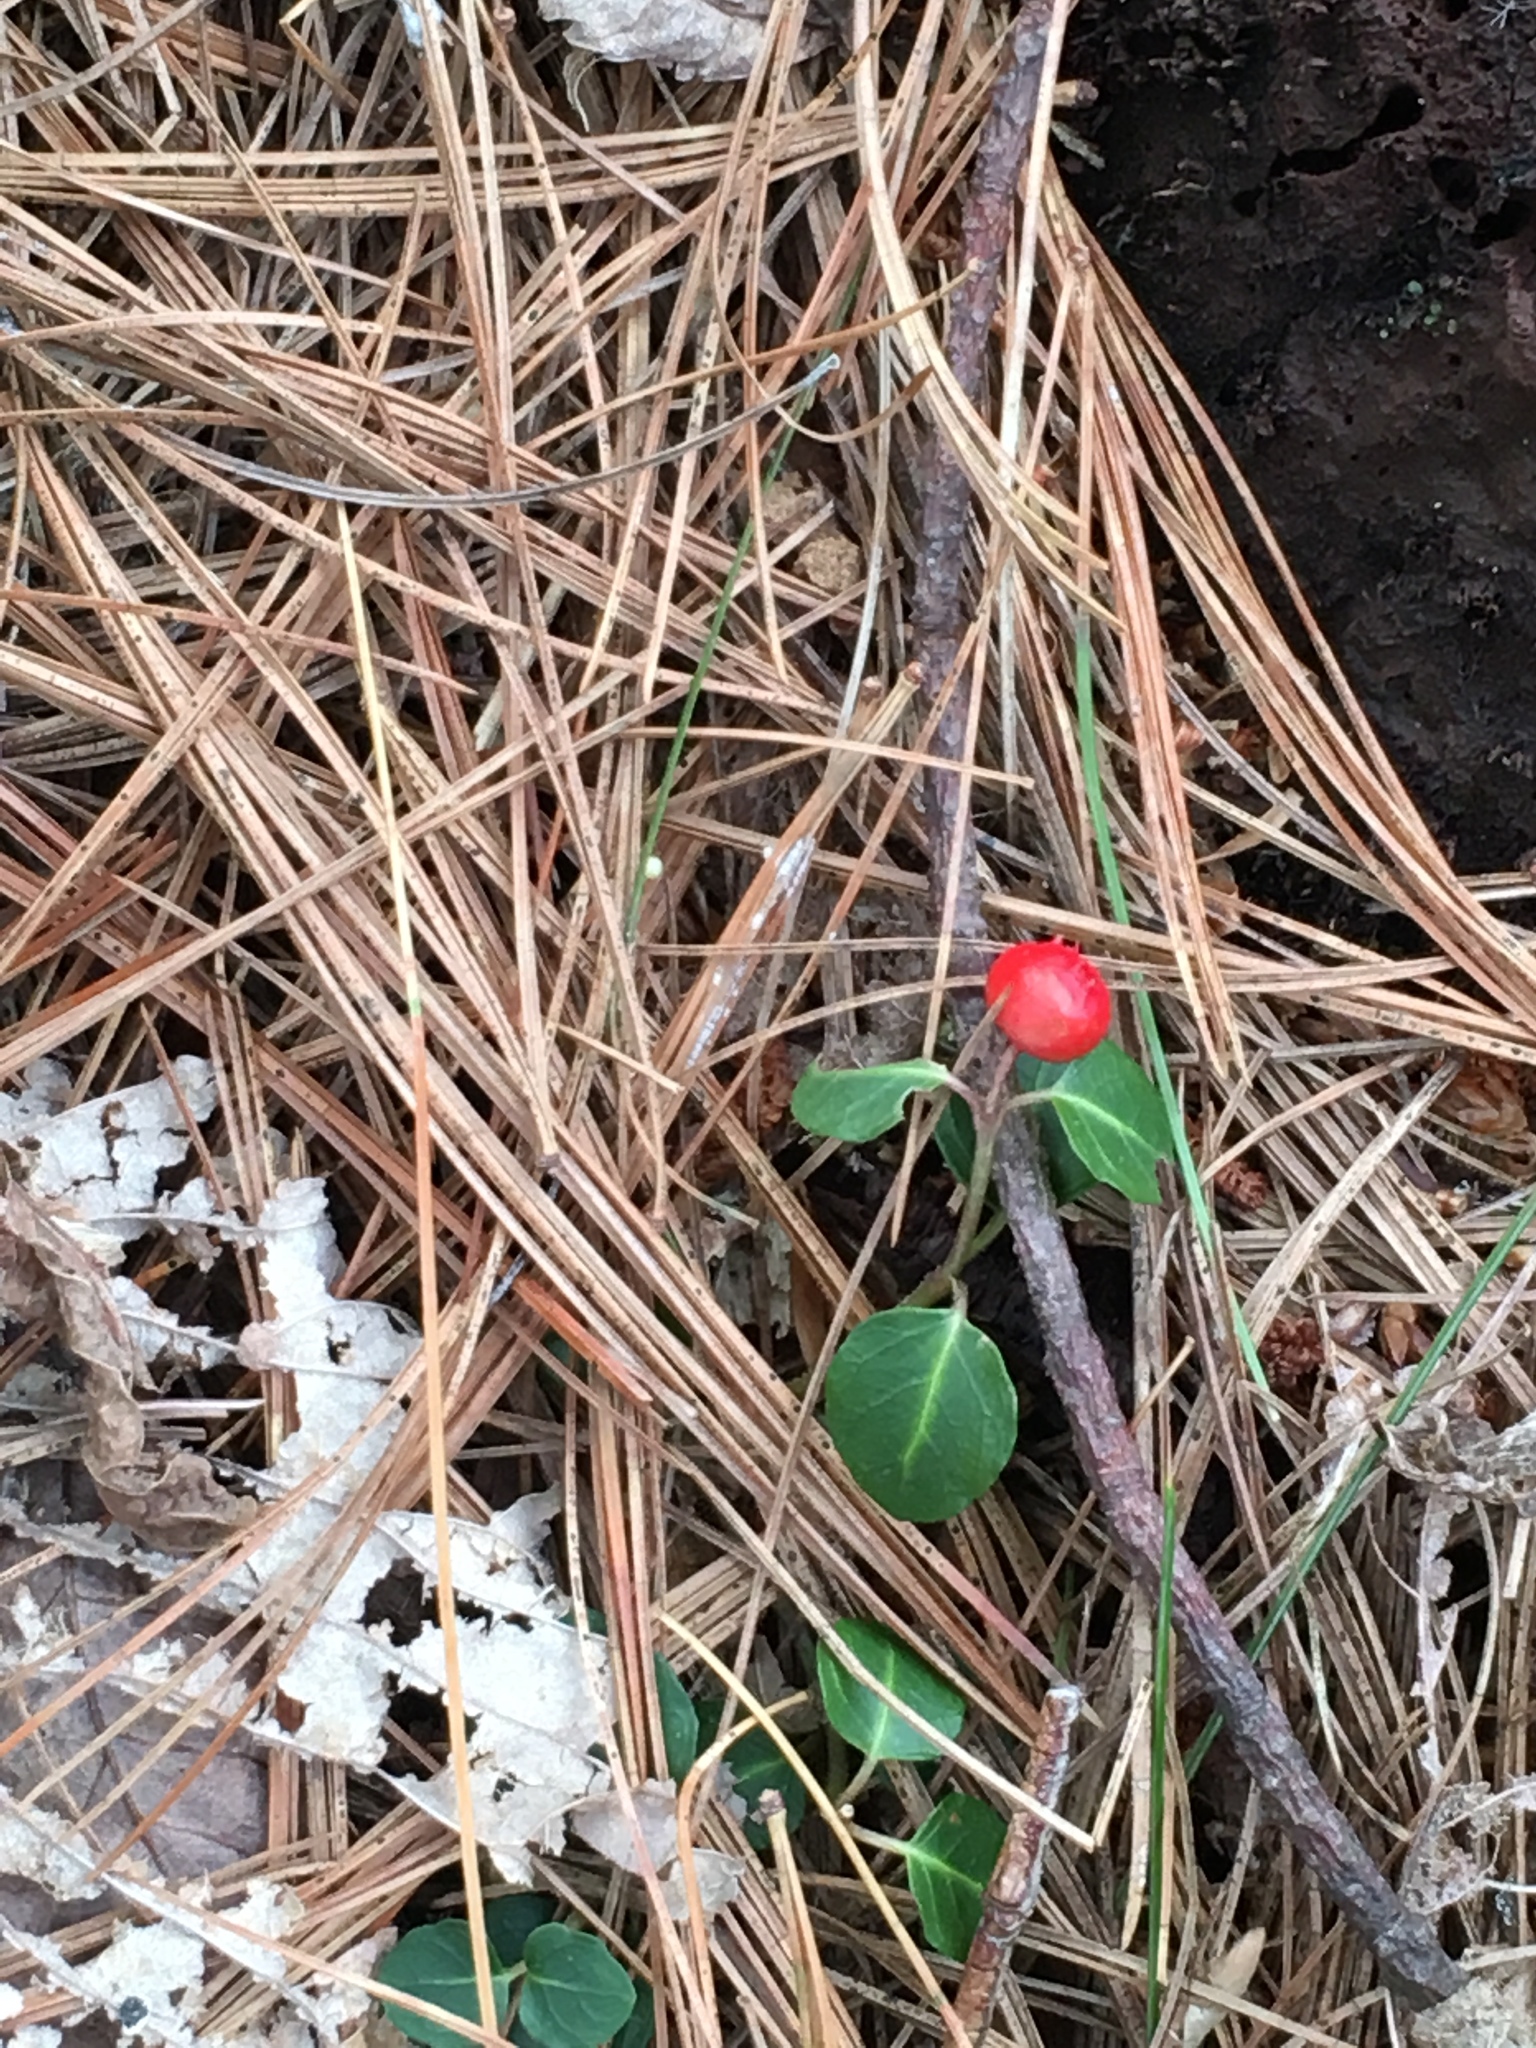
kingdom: Plantae
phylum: Tracheophyta
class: Magnoliopsida
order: Gentianales
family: Rubiaceae
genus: Mitchella
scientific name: Mitchella repens
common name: Partridge-berry
